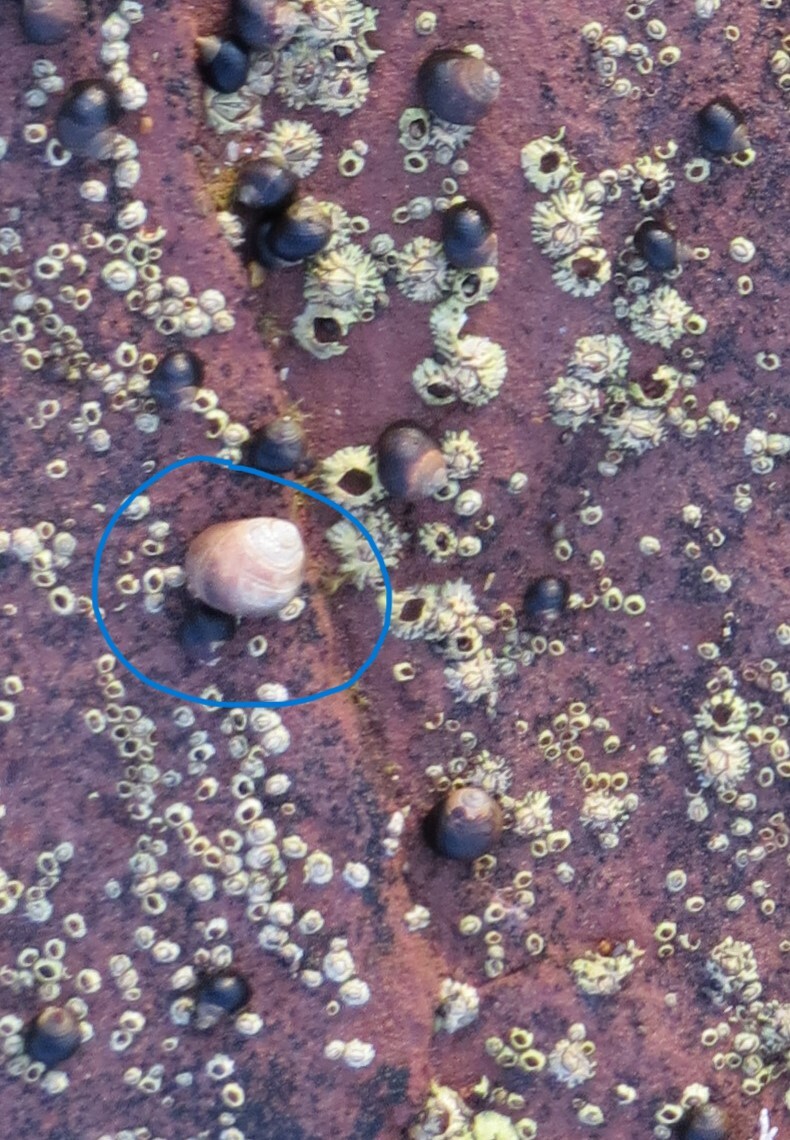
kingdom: Animalia
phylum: Mollusca
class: Gastropoda
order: Littorinimorpha
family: Littorinidae
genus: Littorina
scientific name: Littorina littorea
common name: Common periwinkle
